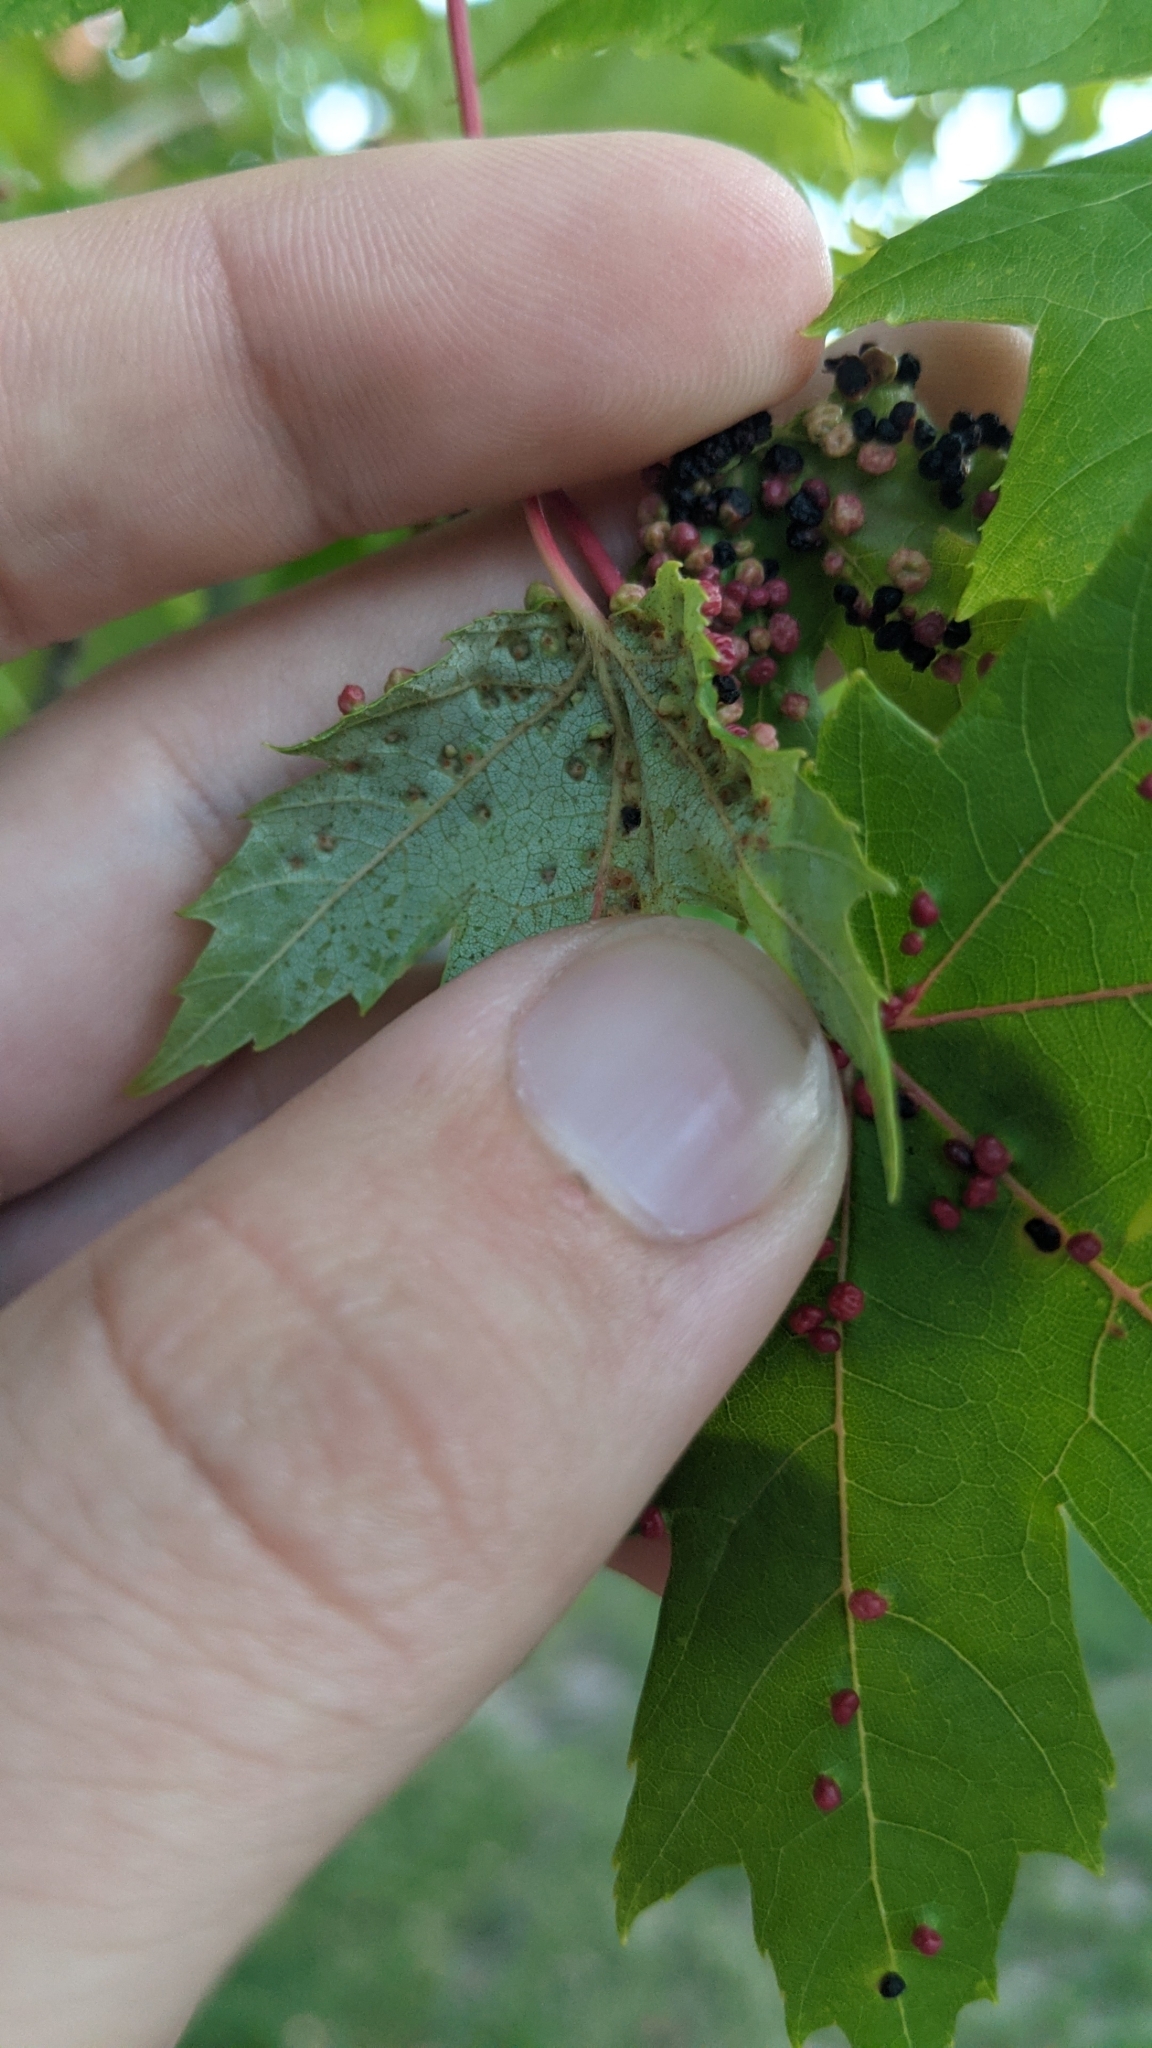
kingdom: Animalia
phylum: Arthropoda
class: Arachnida
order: Trombidiformes
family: Eriophyidae
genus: Vasates
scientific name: Vasates quadripedes
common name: Maple bladder gall mite
